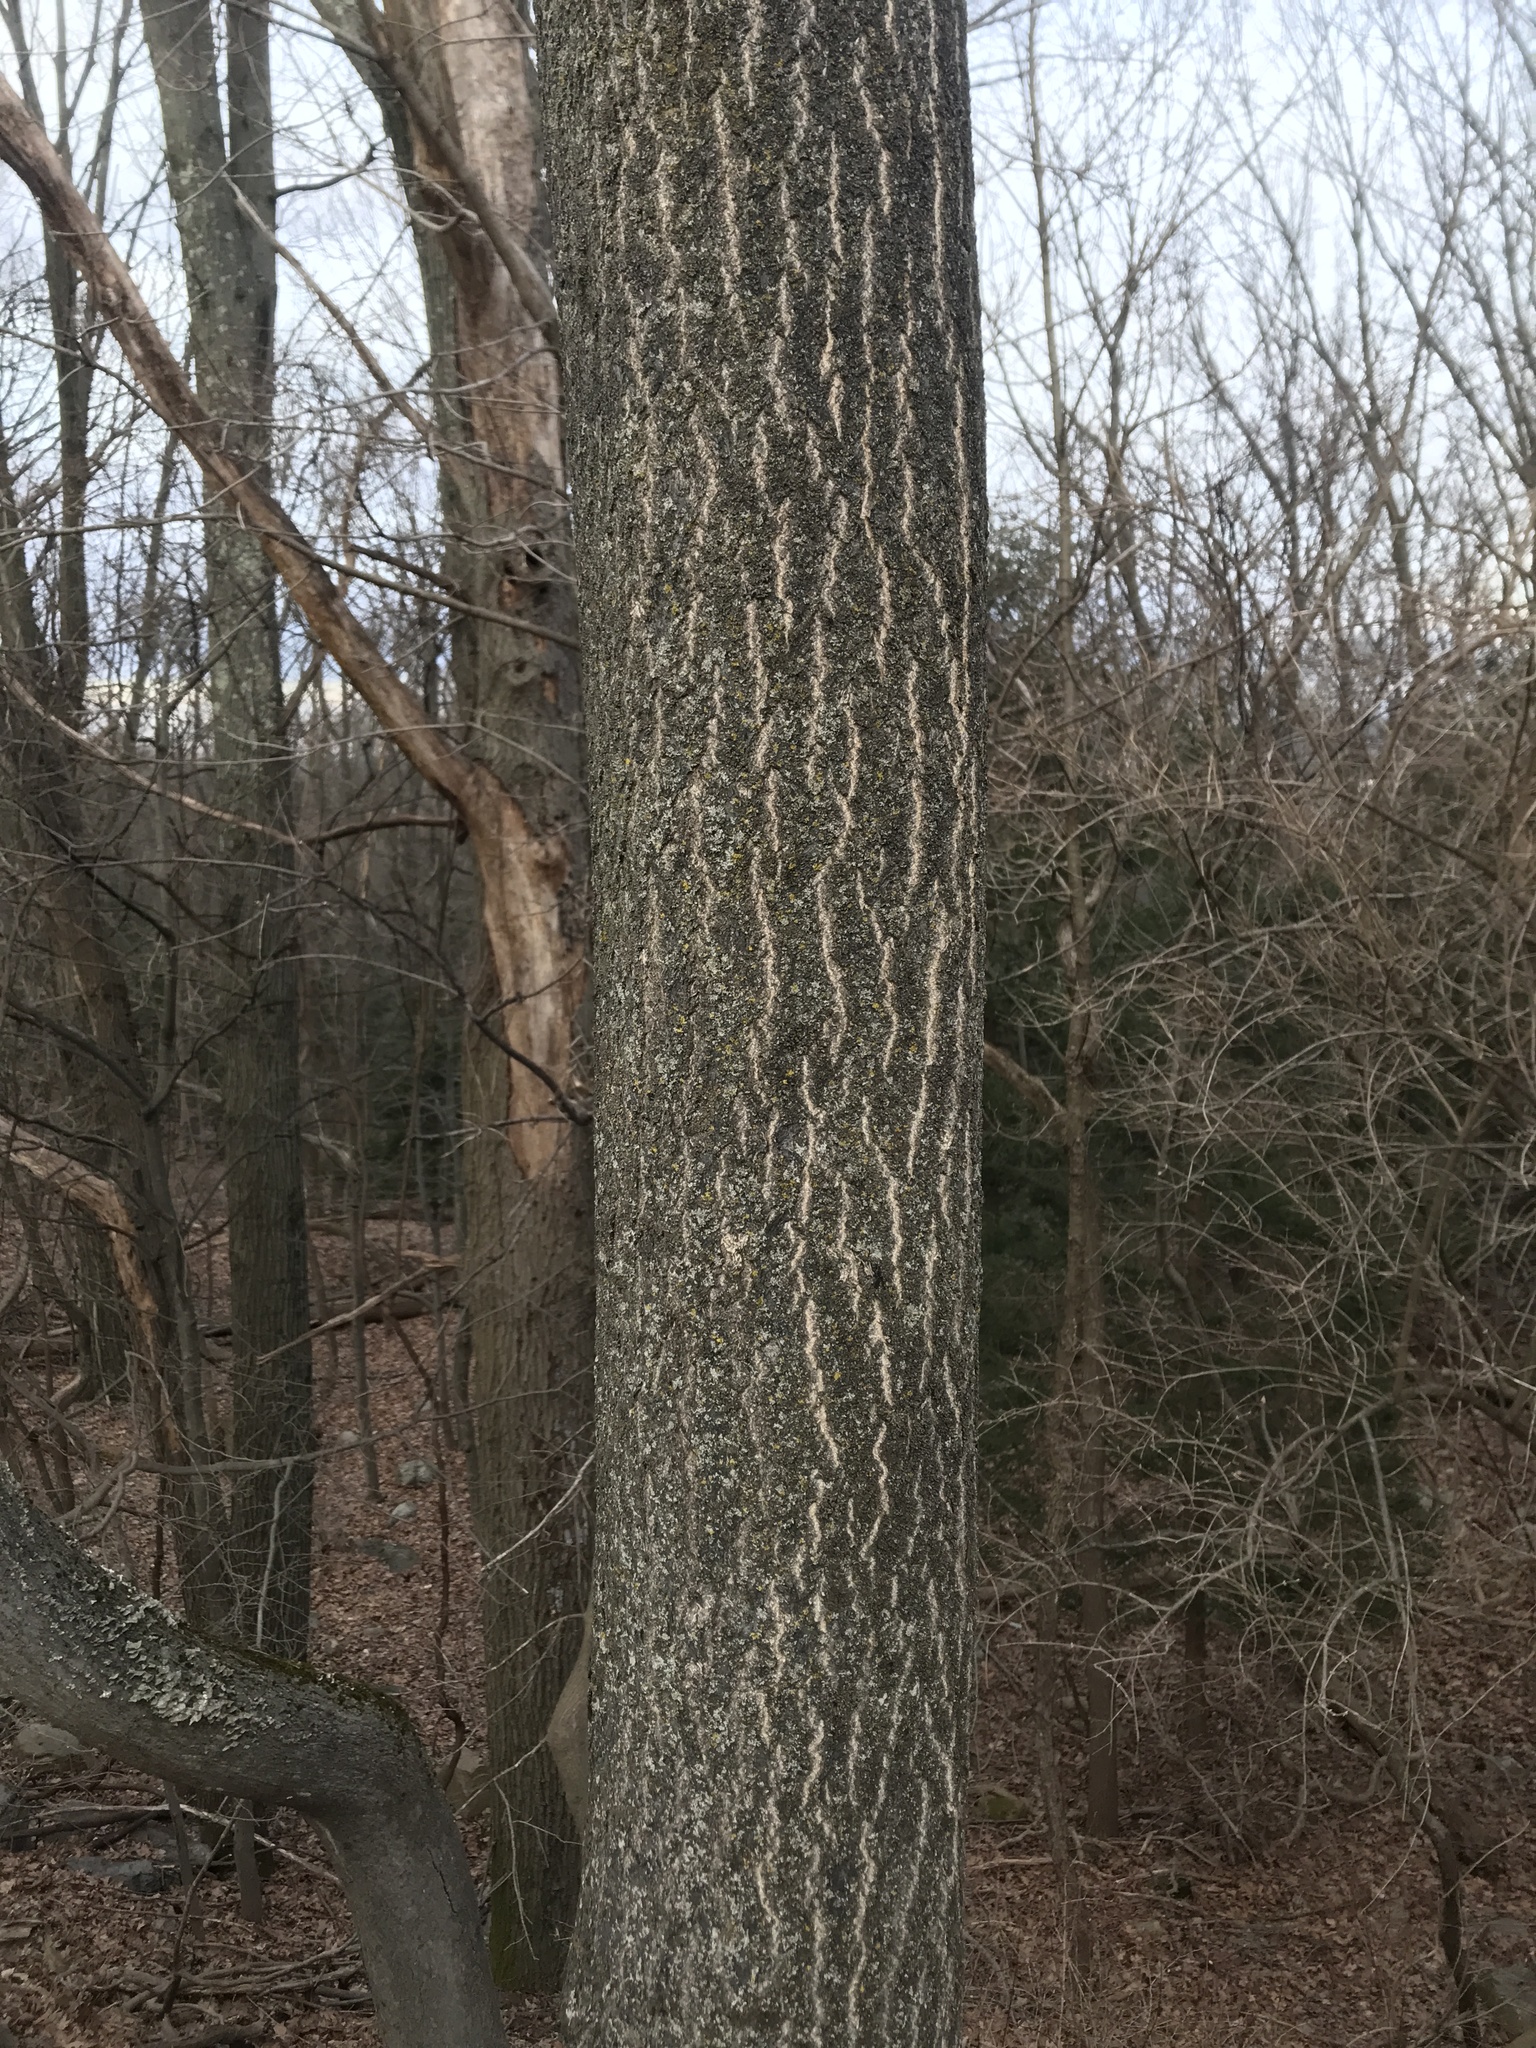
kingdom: Plantae
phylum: Tracheophyta
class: Magnoliopsida
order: Sapindales
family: Simaroubaceae
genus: Ailanthus
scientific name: Ailanthus altissima
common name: Tree-of-heaven
